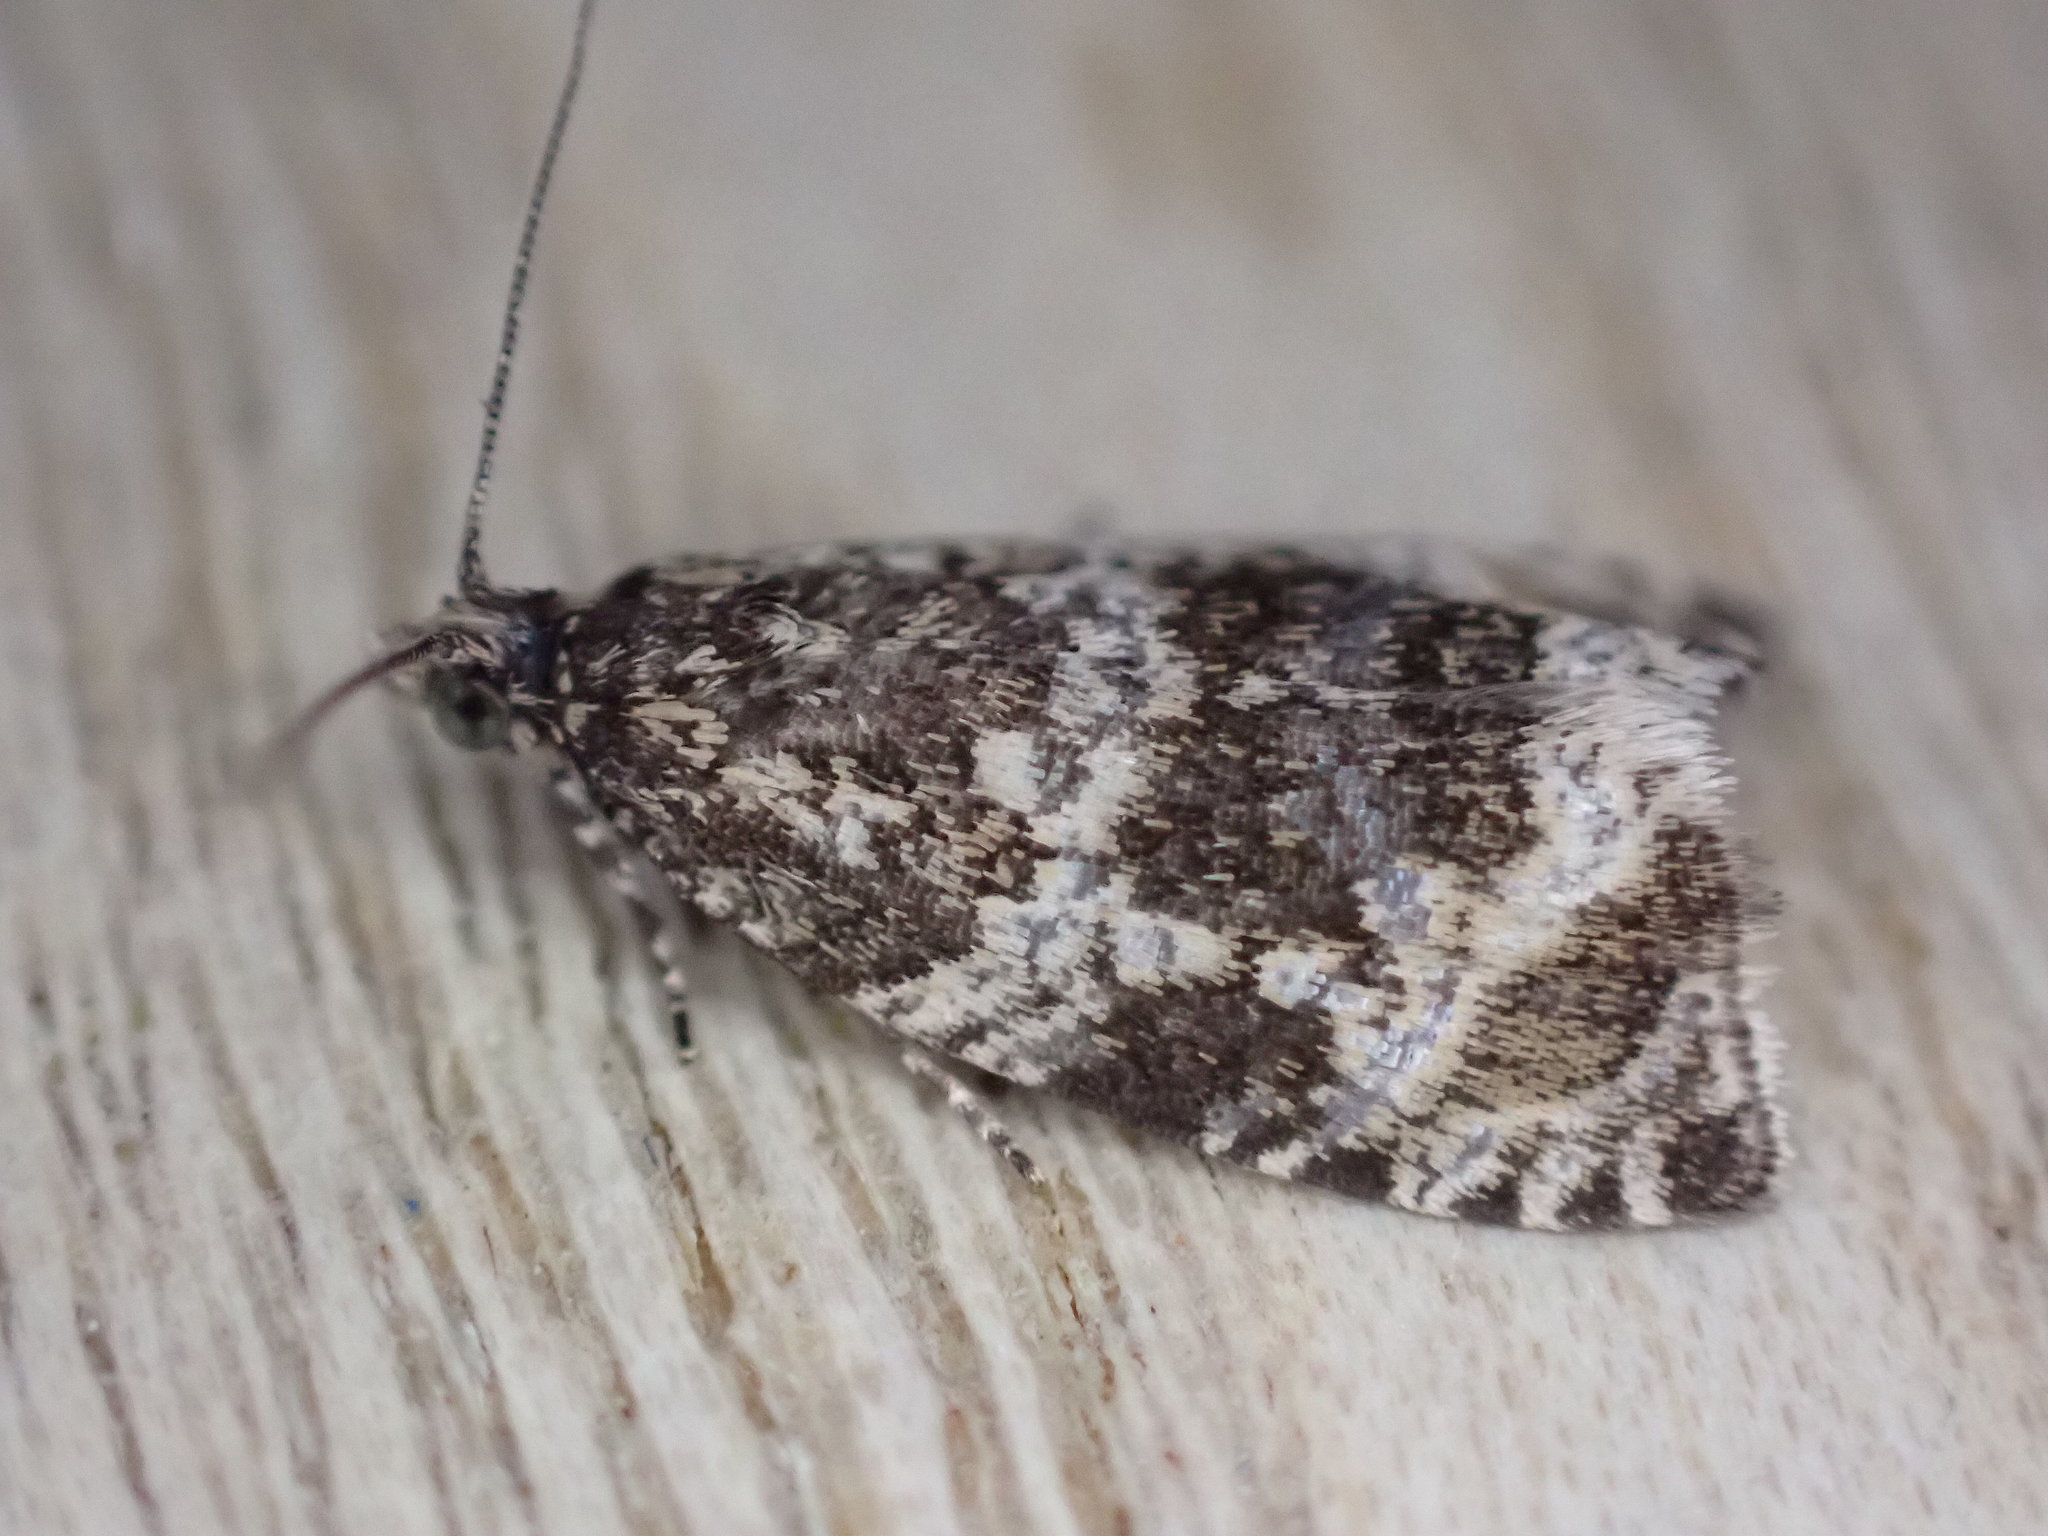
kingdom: Animalia
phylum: Arthropoda
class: Insecta
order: Lepidoptera
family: Tortricidae
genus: Syricoris
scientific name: Syricoris lacunana
